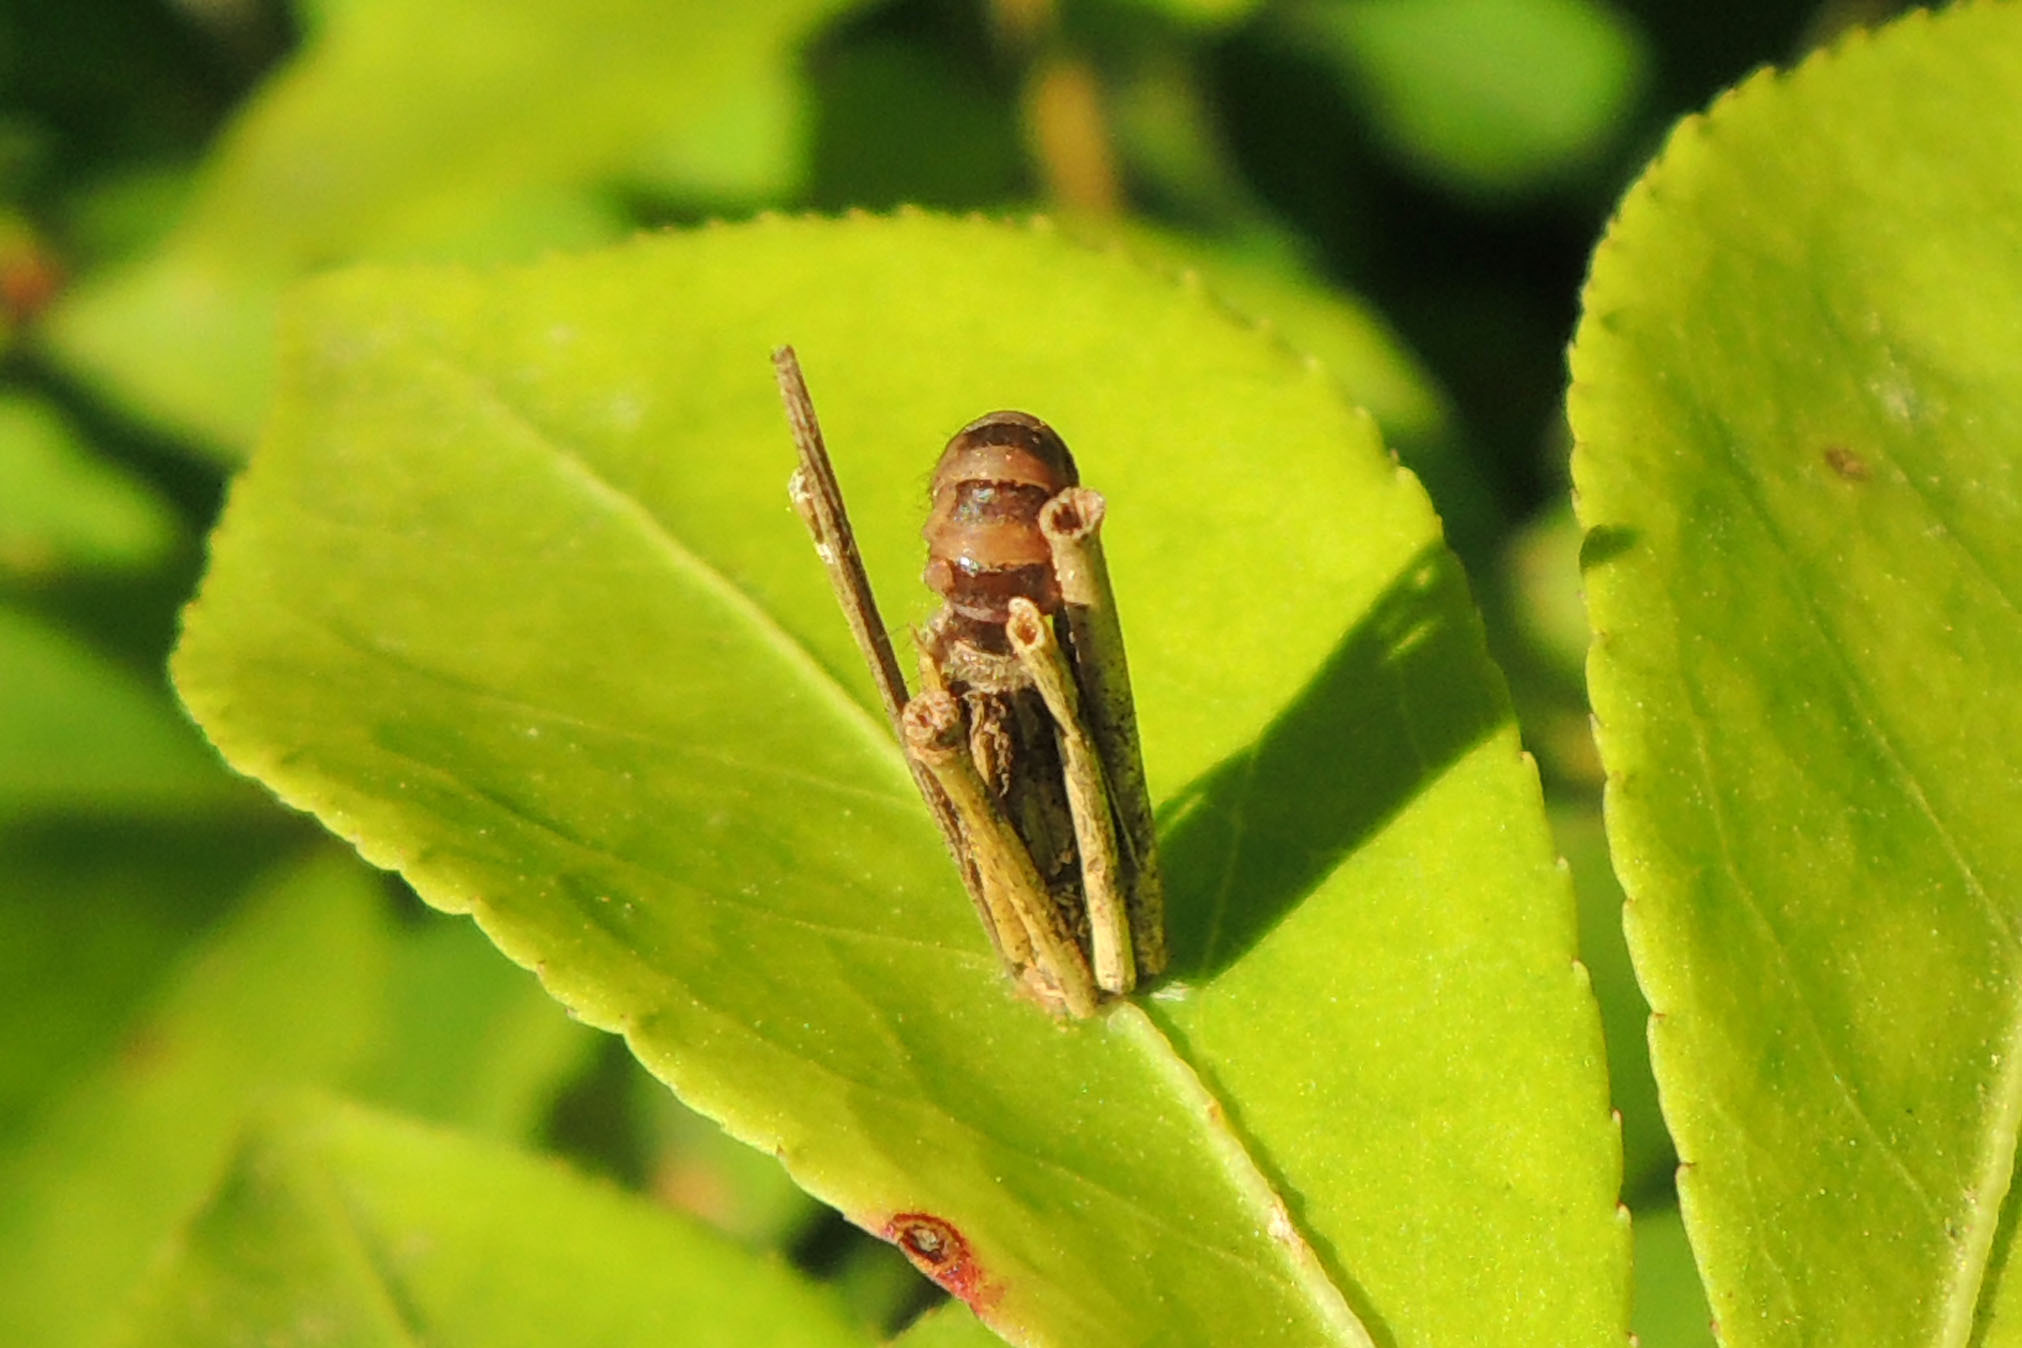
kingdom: Animalia
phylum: Arthropoda
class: Insecta
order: Lepidoptera
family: Psychidae
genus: Psyche
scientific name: Psyche casta
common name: Common sweep
